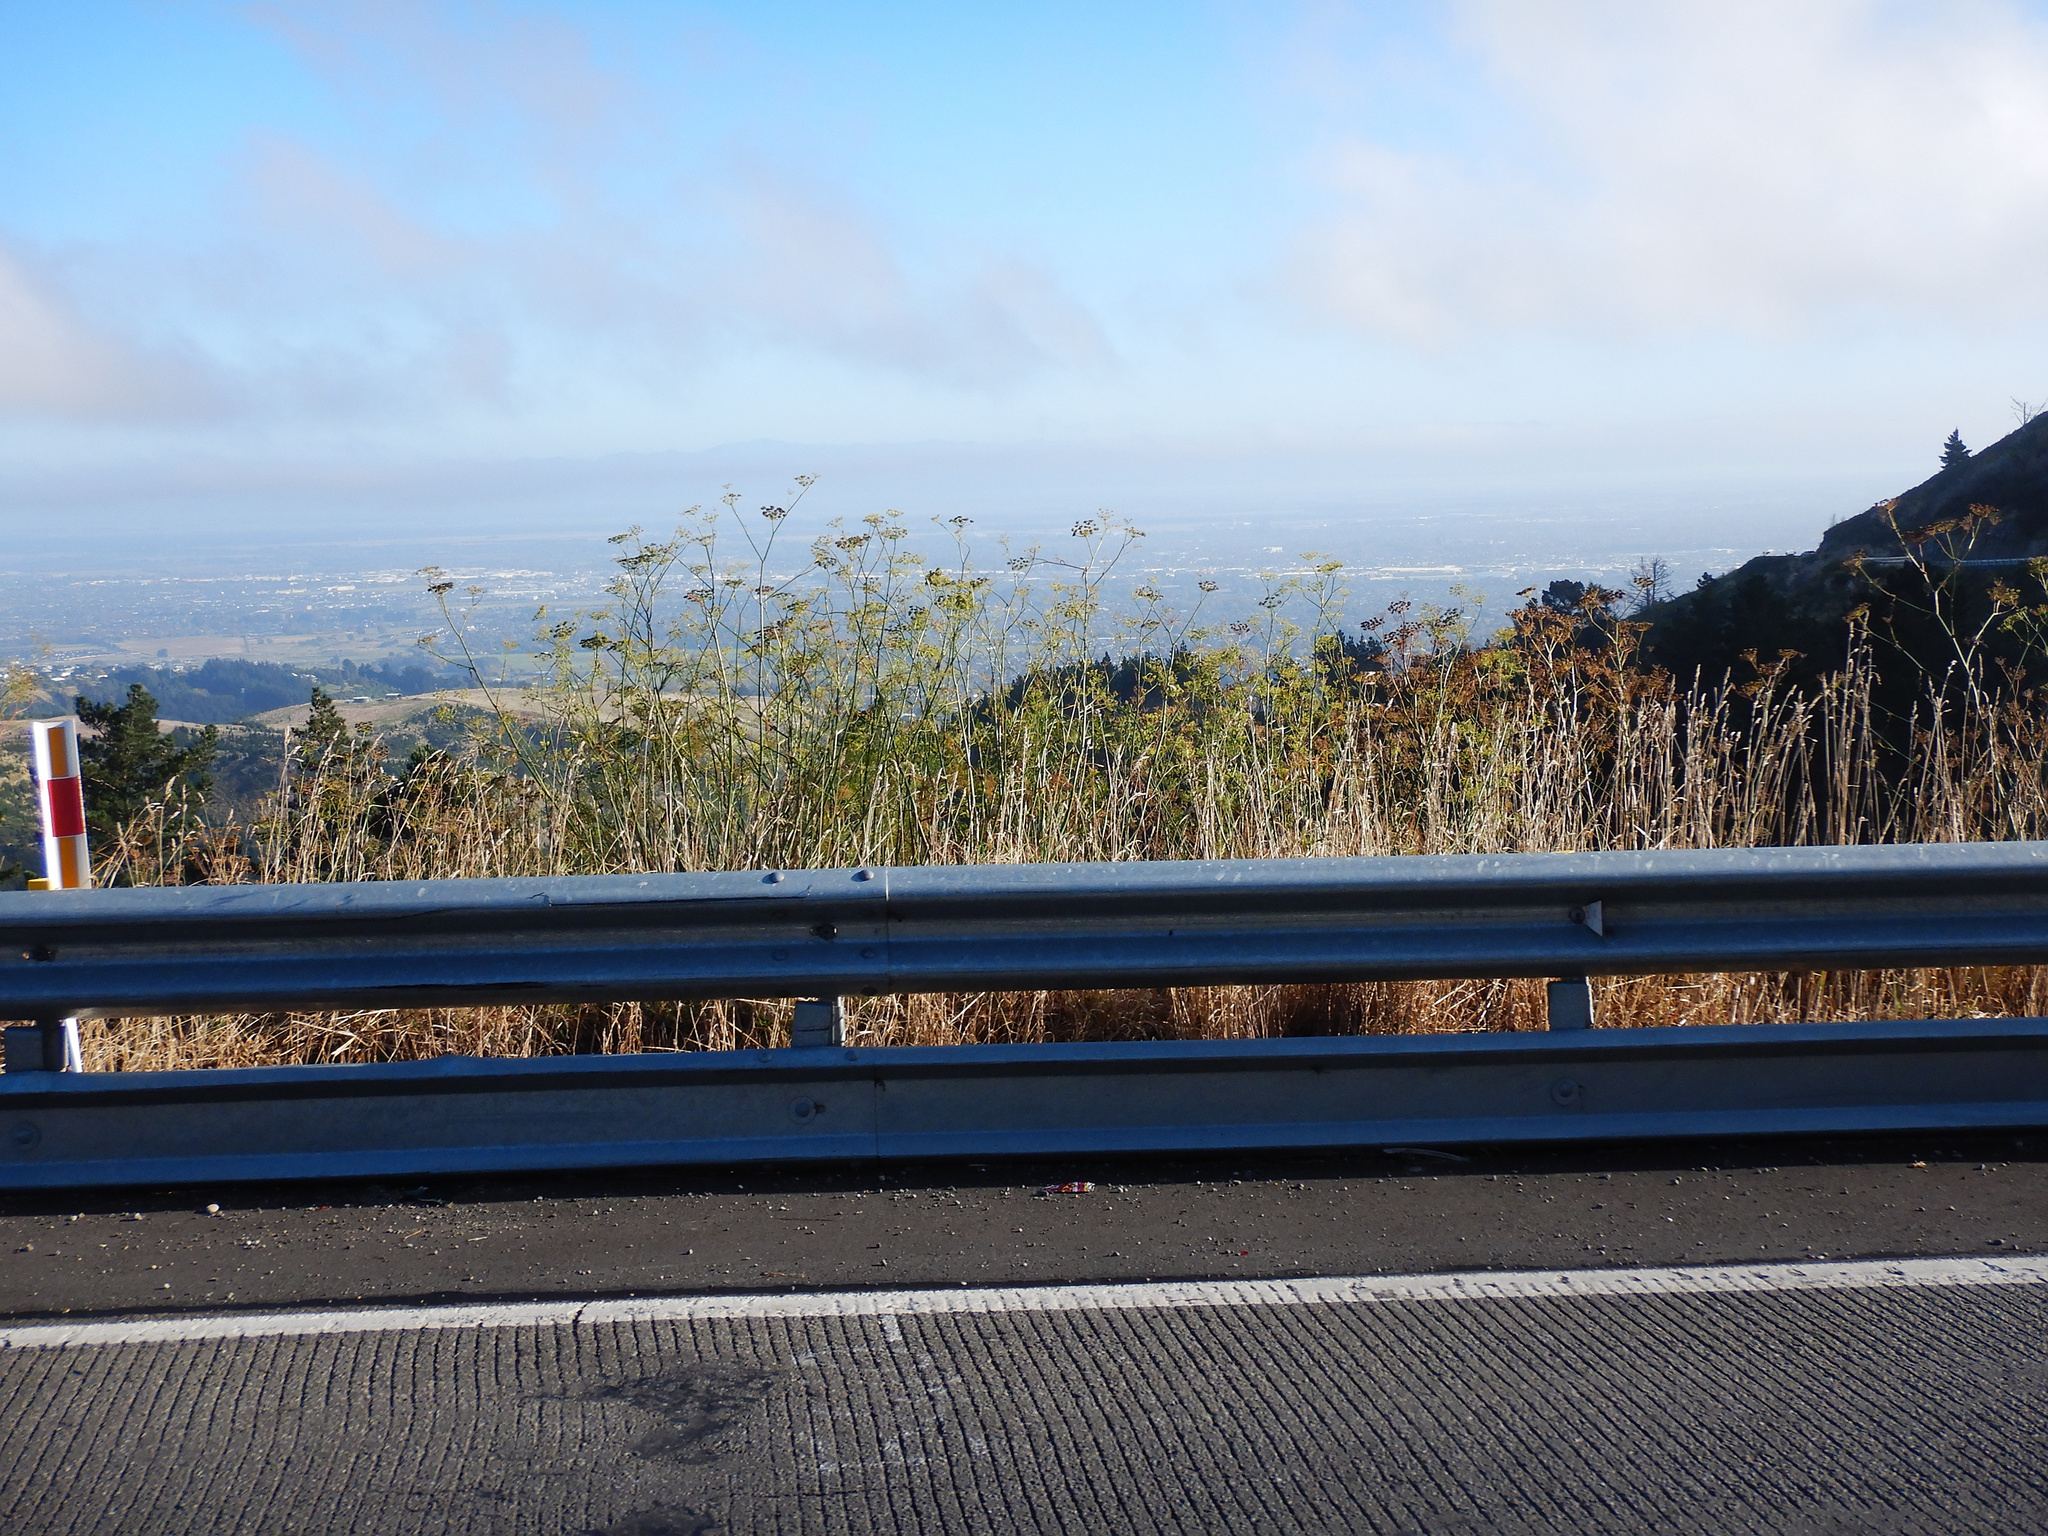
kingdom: Plantae
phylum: Tracheophyta
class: Magnoliopsida
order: Apiales
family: Apiaceae
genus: Foeniculum
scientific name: Foeniculum vulgare
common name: Fennel
